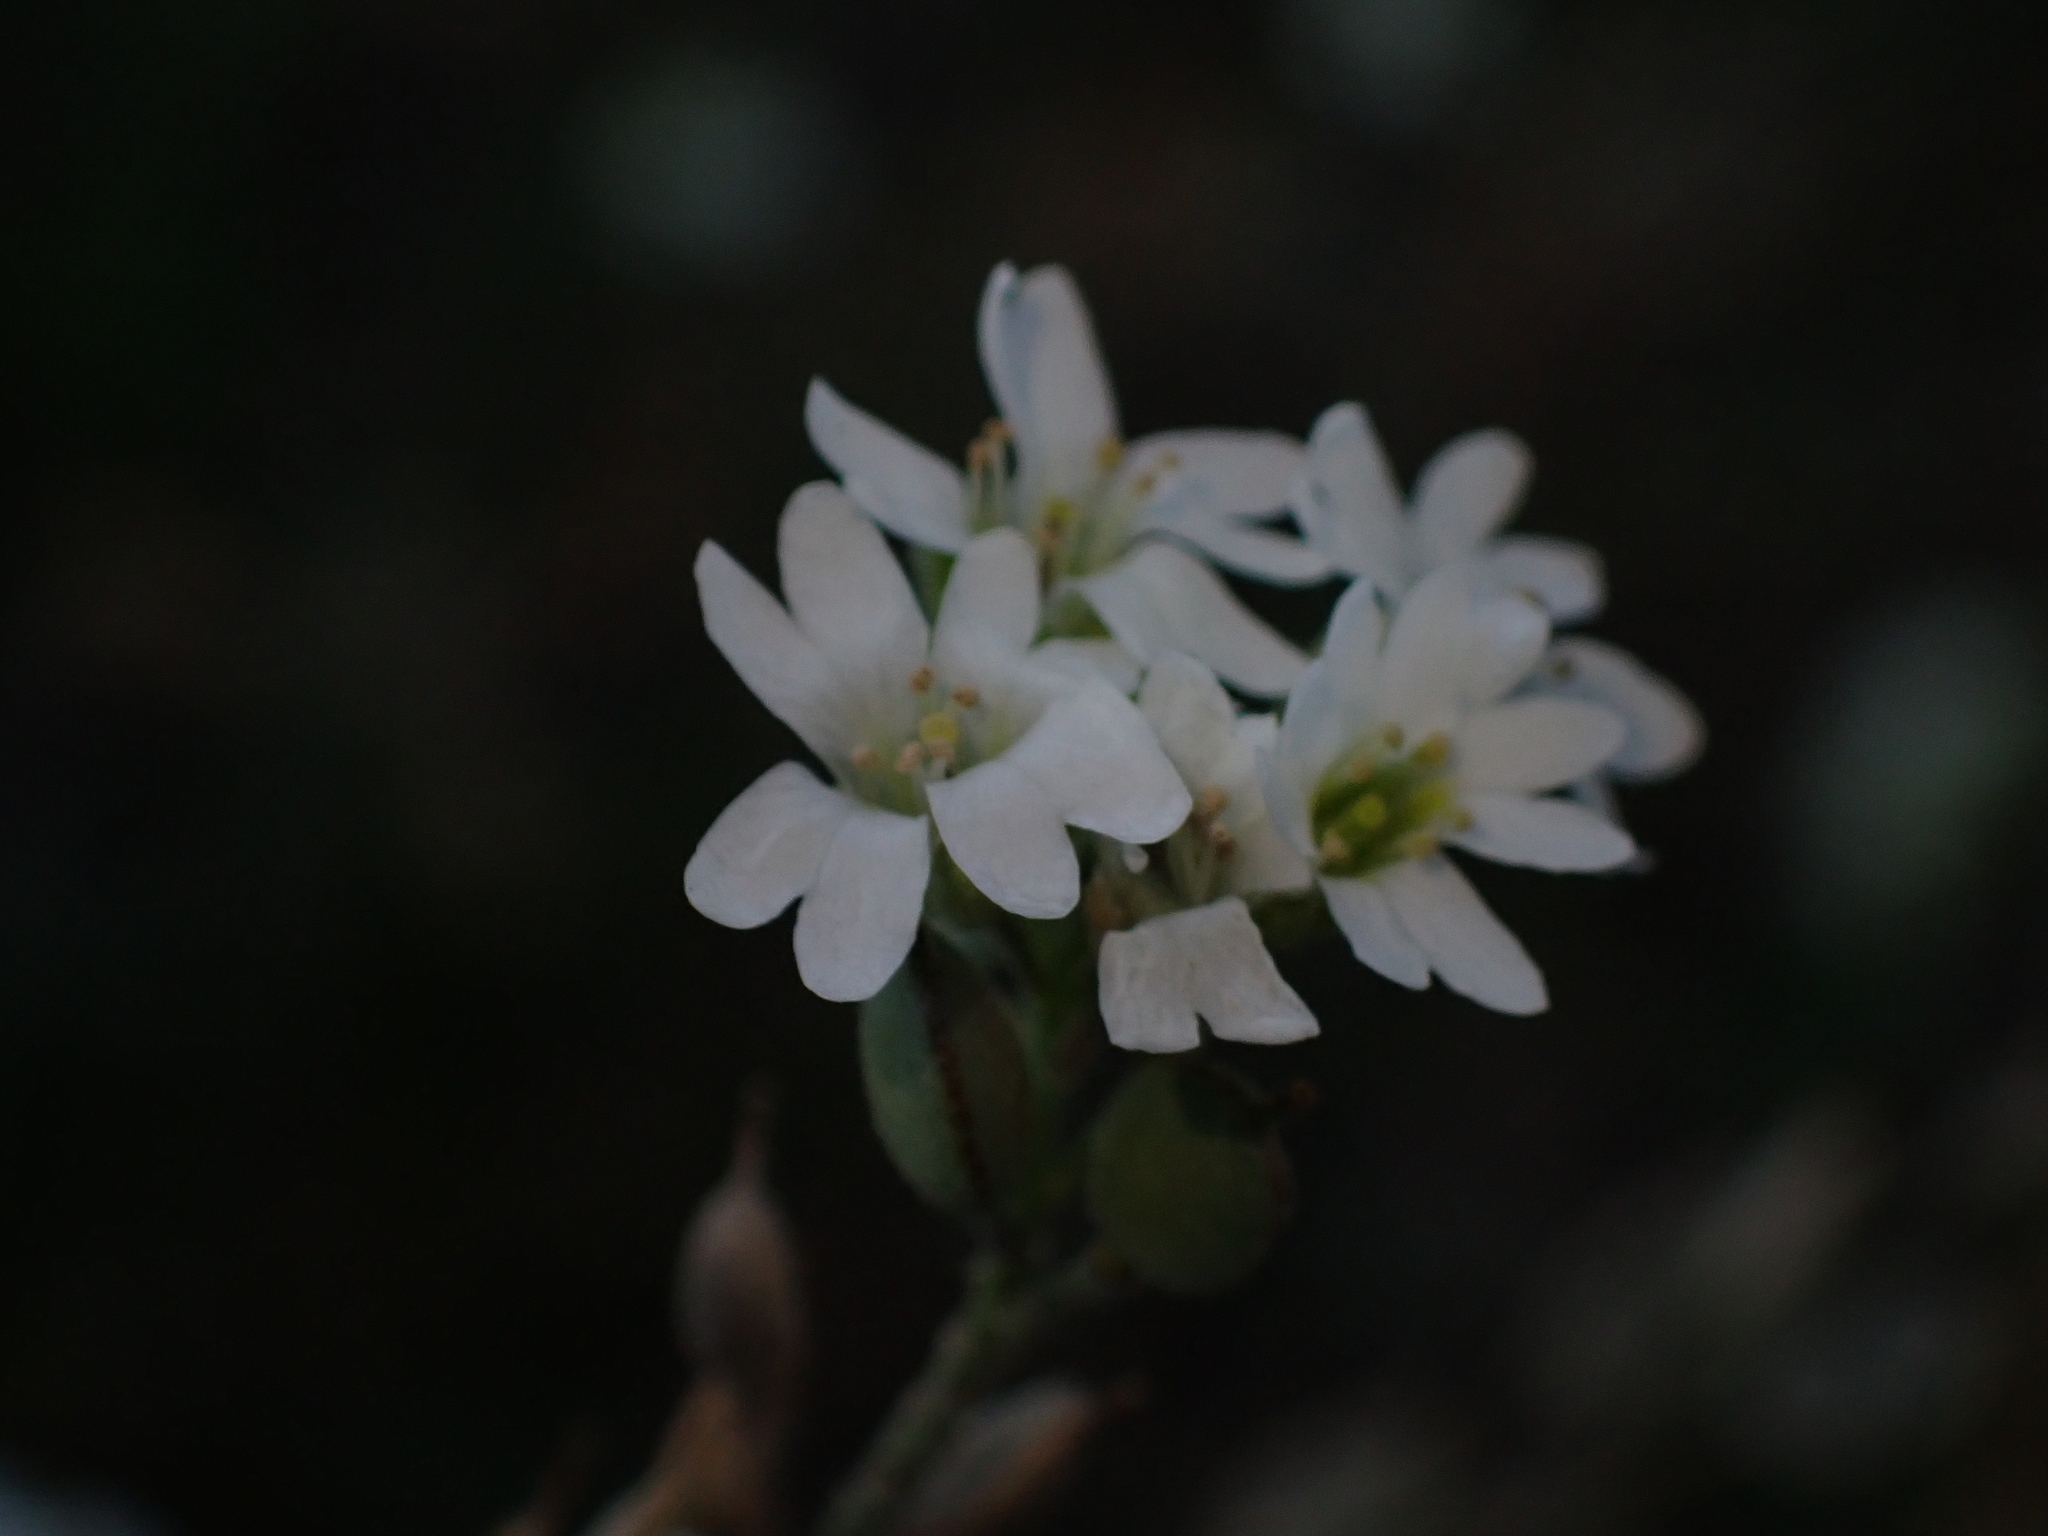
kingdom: Plantae
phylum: Tracheophyta
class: Magnoliopsida
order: Brassicales
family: Brassicaceae
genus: Berteroa
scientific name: Berteroa incana
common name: Hoary alison
